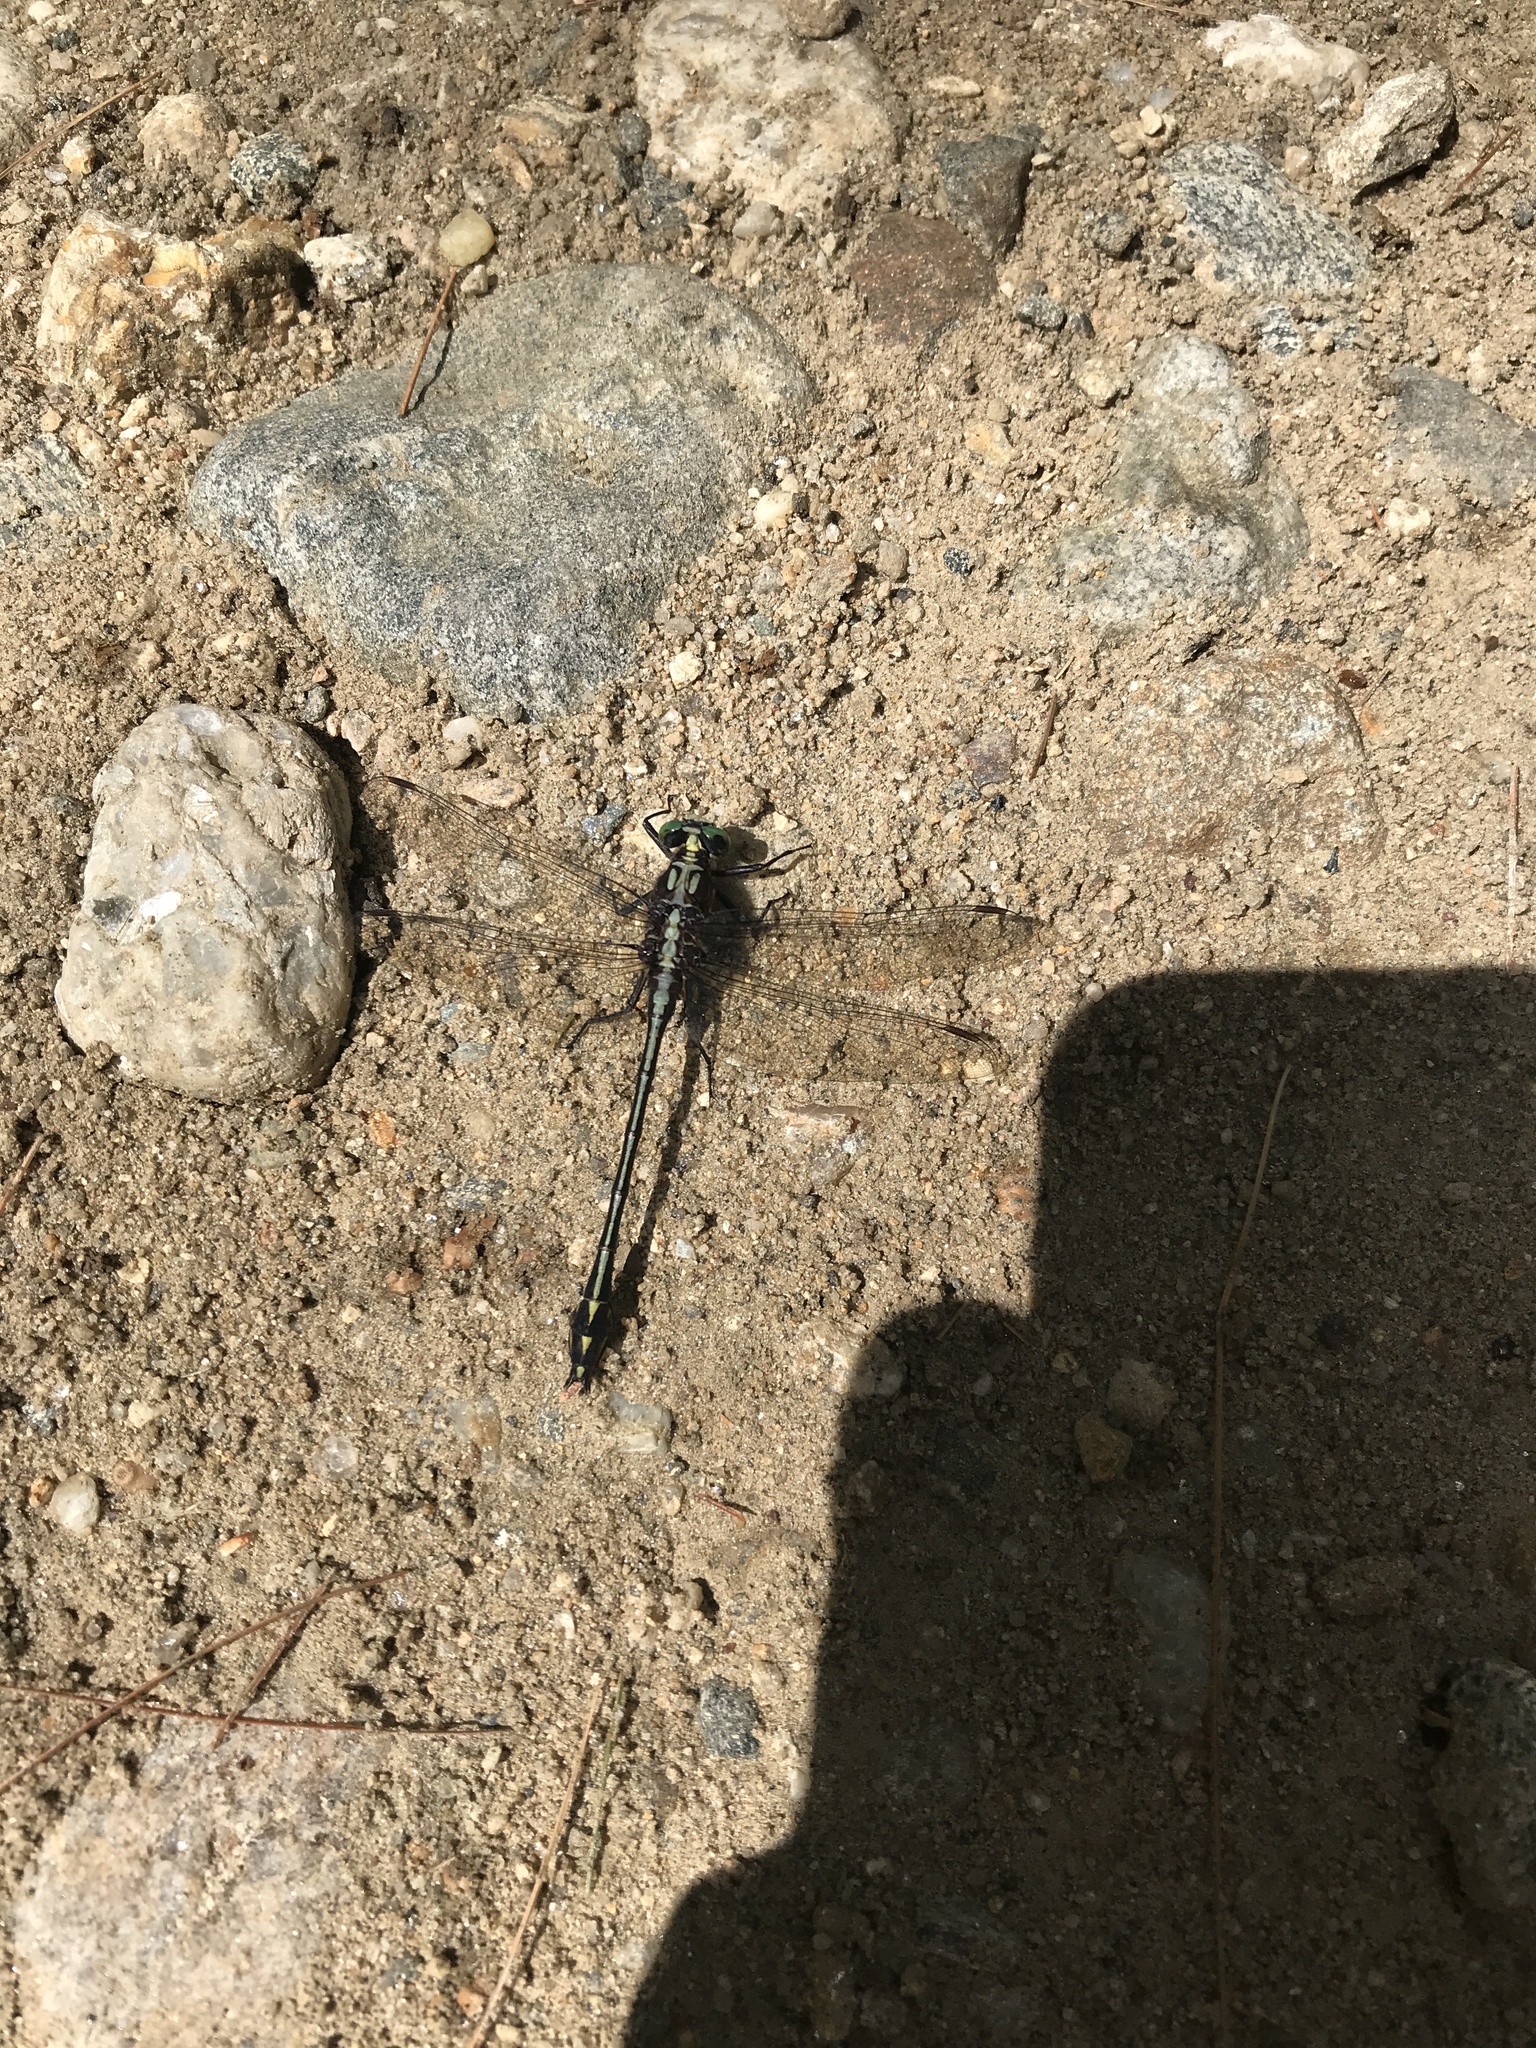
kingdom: Animalia
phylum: Arthropoda
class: Insecta
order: Odonata
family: Gomphidae
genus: Dromogomphus
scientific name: Dromogomphus spinosus
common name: Black-shouldered spinyleg
